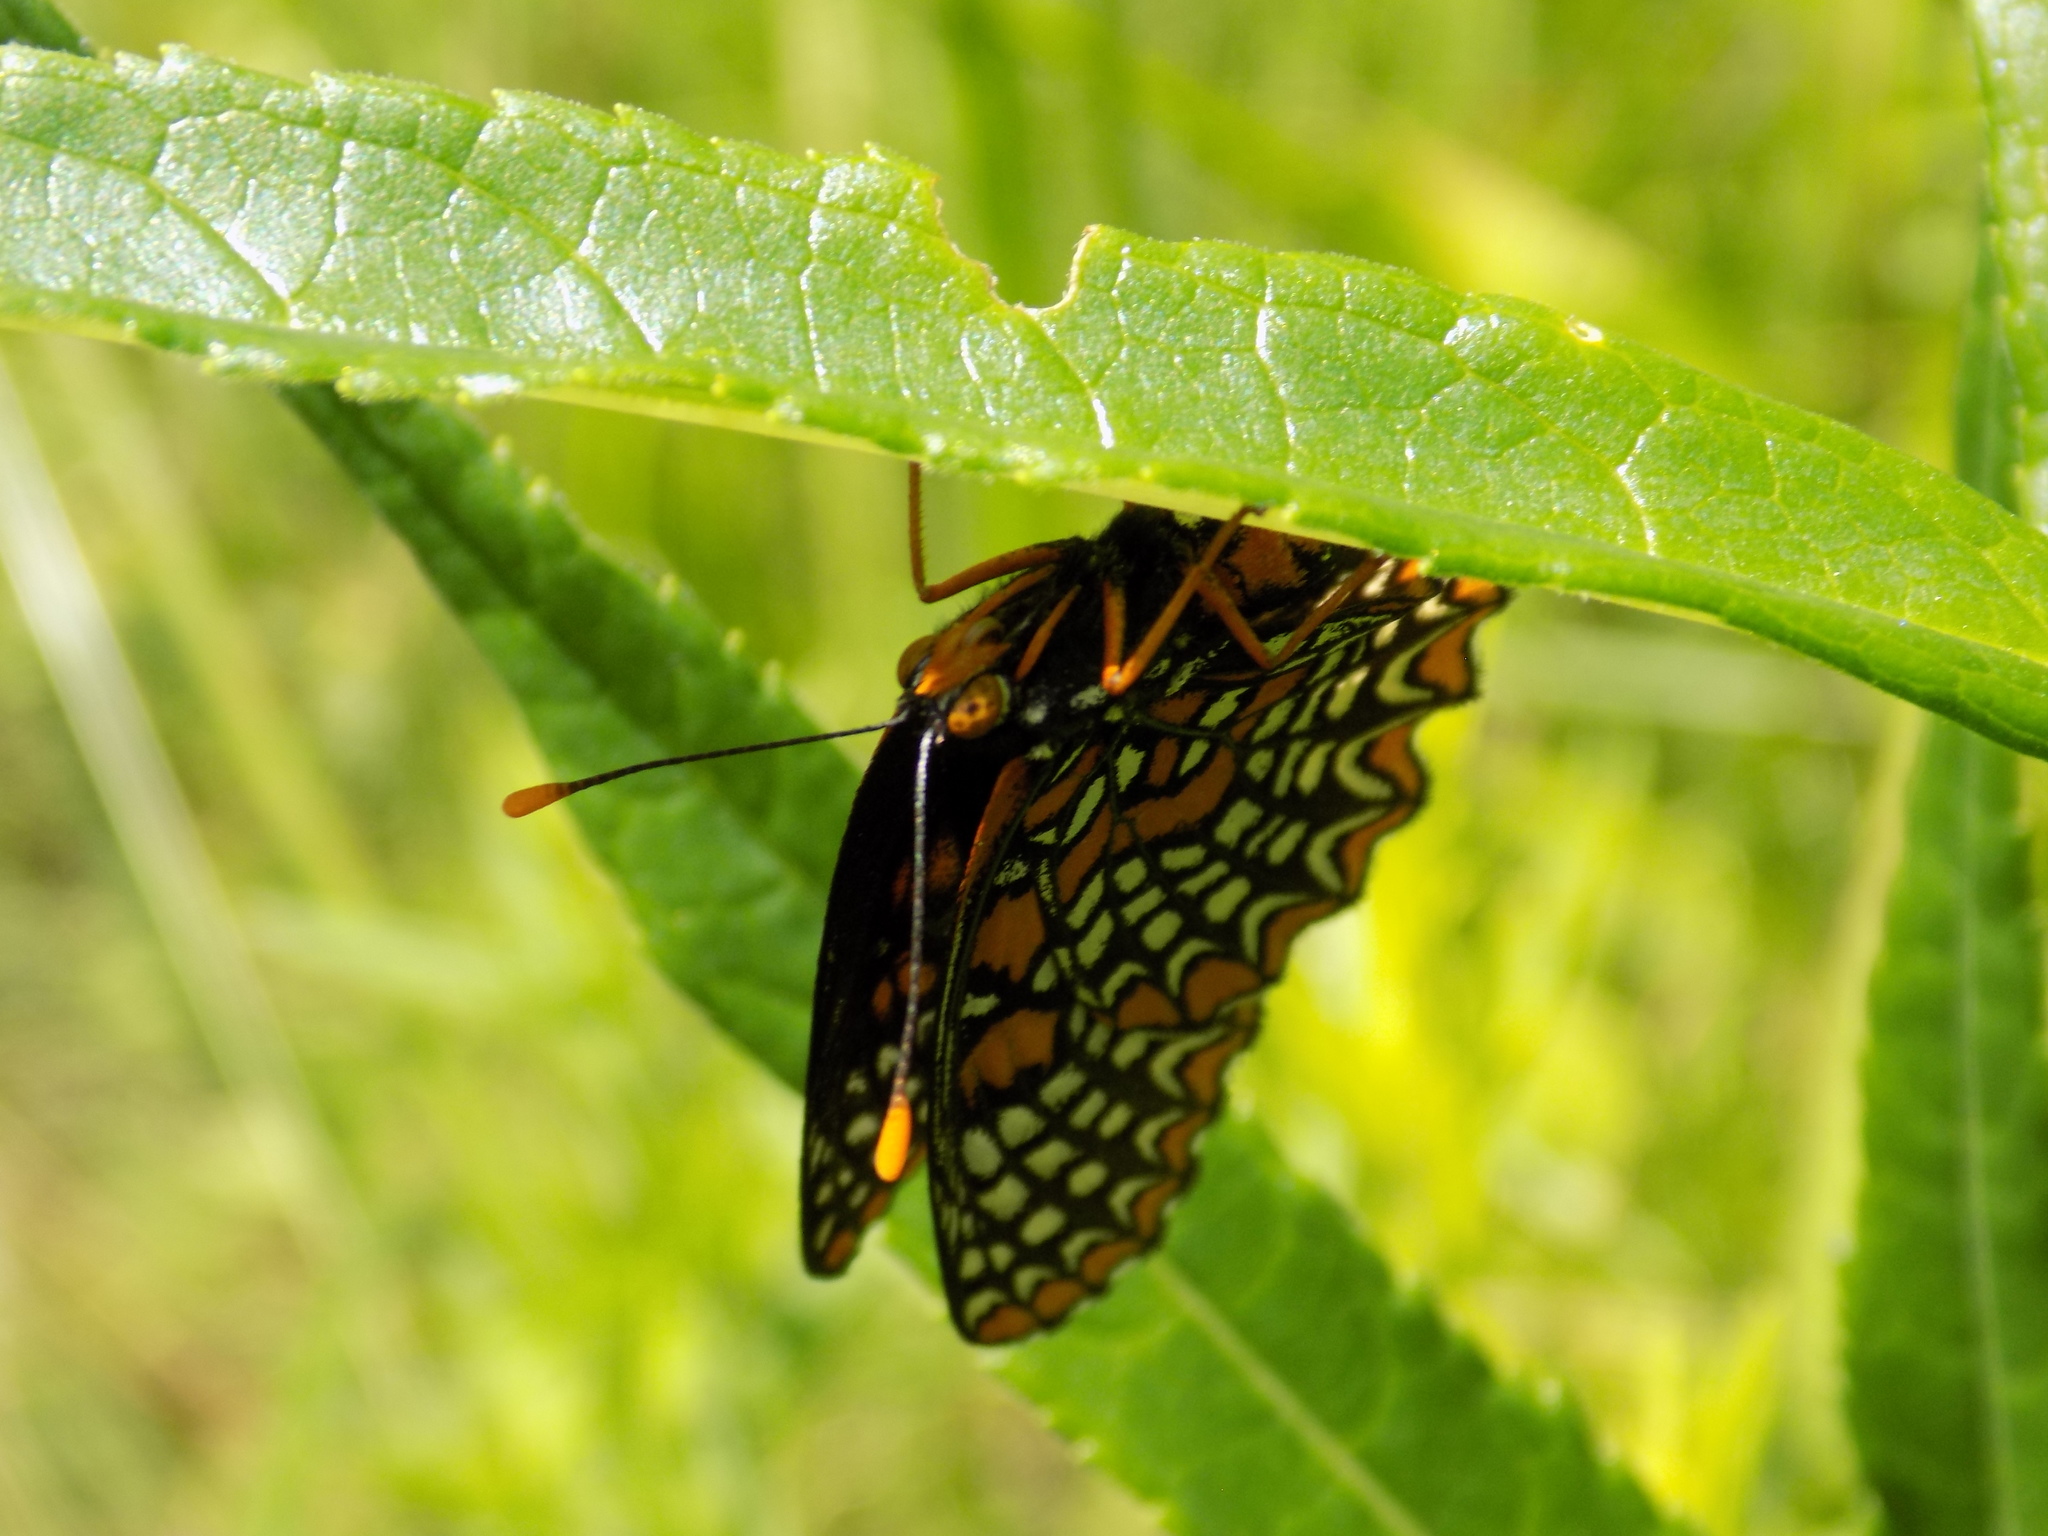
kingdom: Animalia
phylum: Arthropoda
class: Insecta
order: Lepidoptera
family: Nymphalidae
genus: Euphydryas
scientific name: Euphydryas phaeton
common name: Baltimore checkerspot
